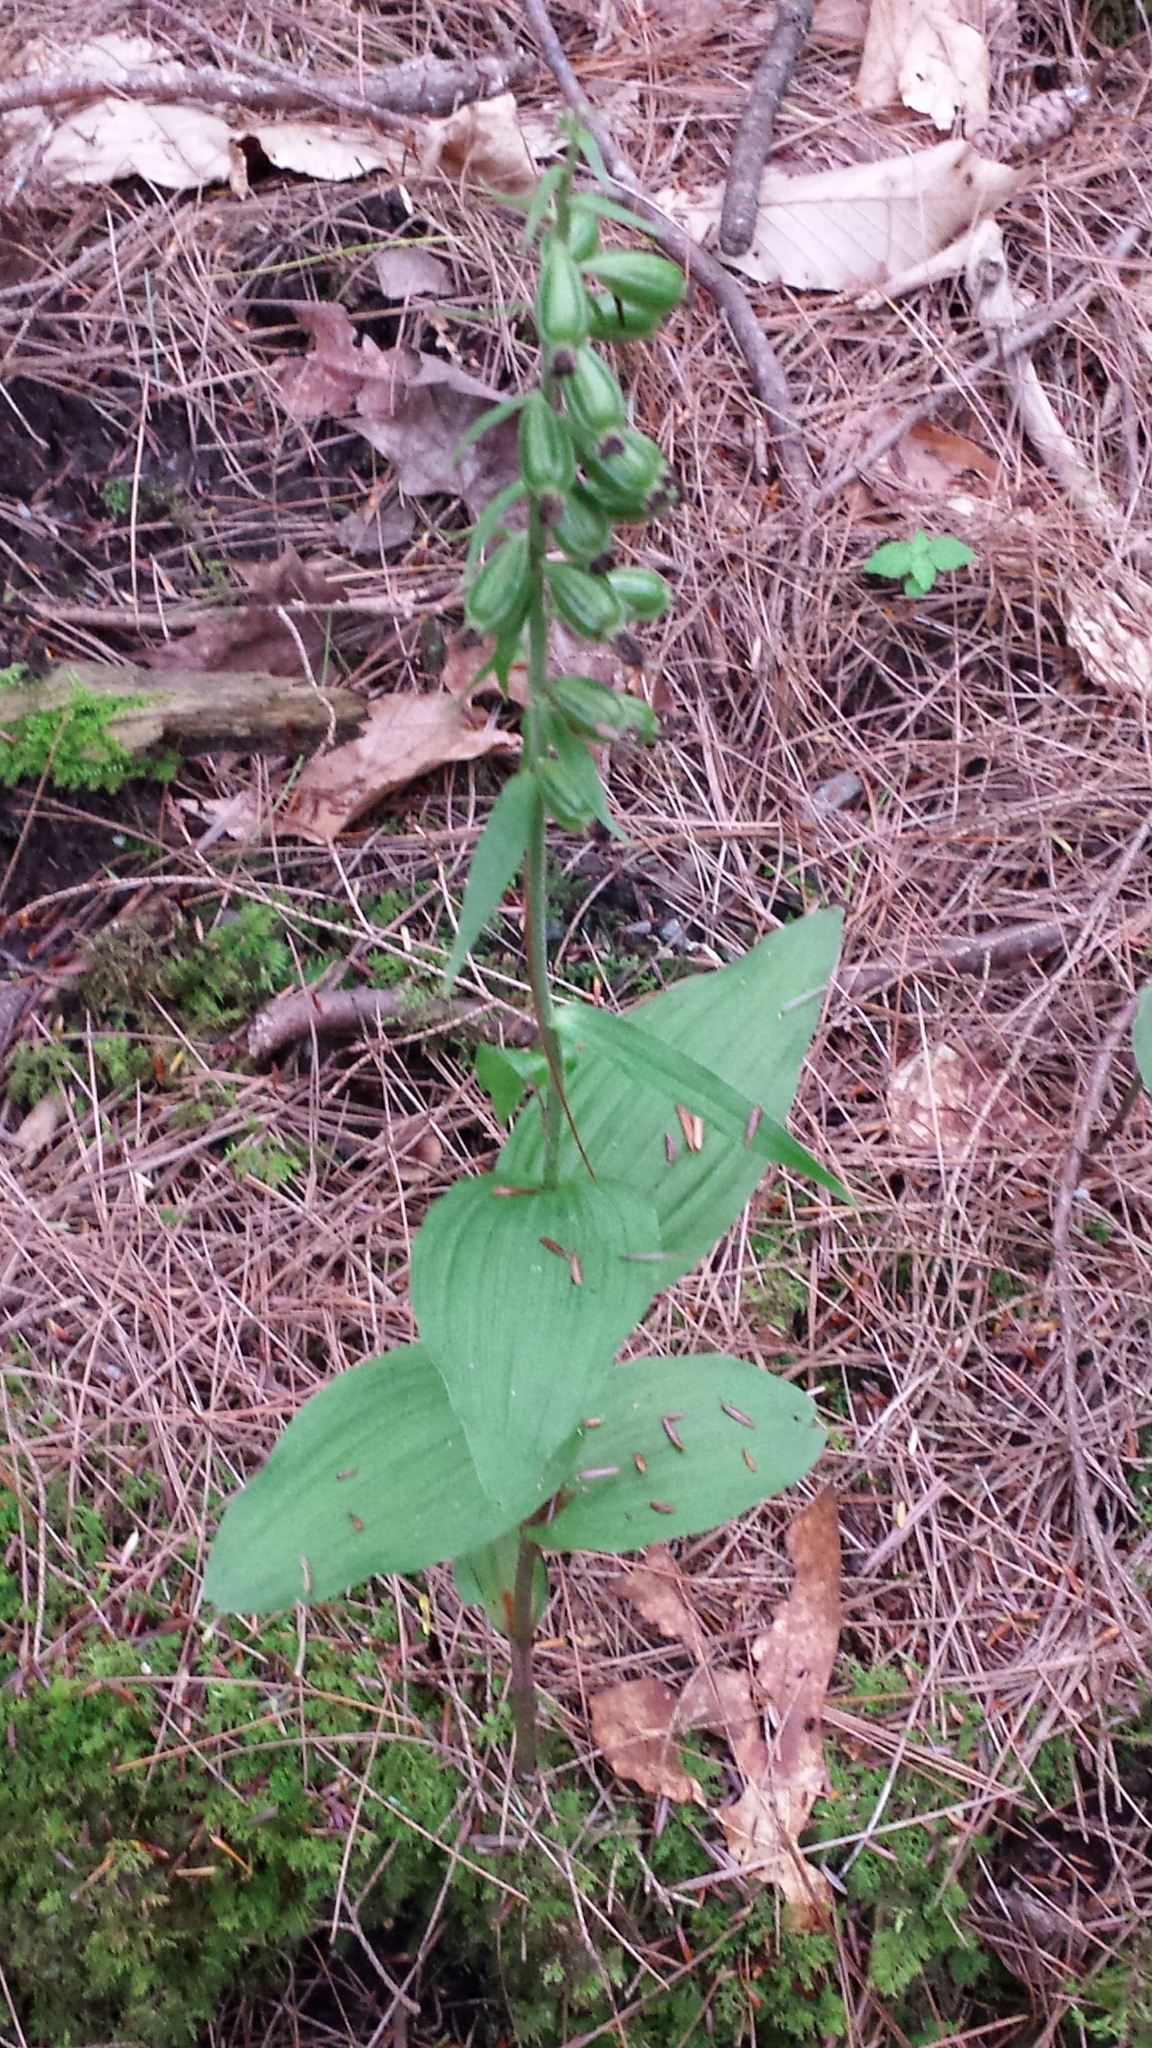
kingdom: Plantae
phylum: Tracheophyta
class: Liliopsida
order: Asparagales
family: Orchidaceae
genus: Epipactis
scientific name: Epipactis helleborine
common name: Broad-leaved helleborine
